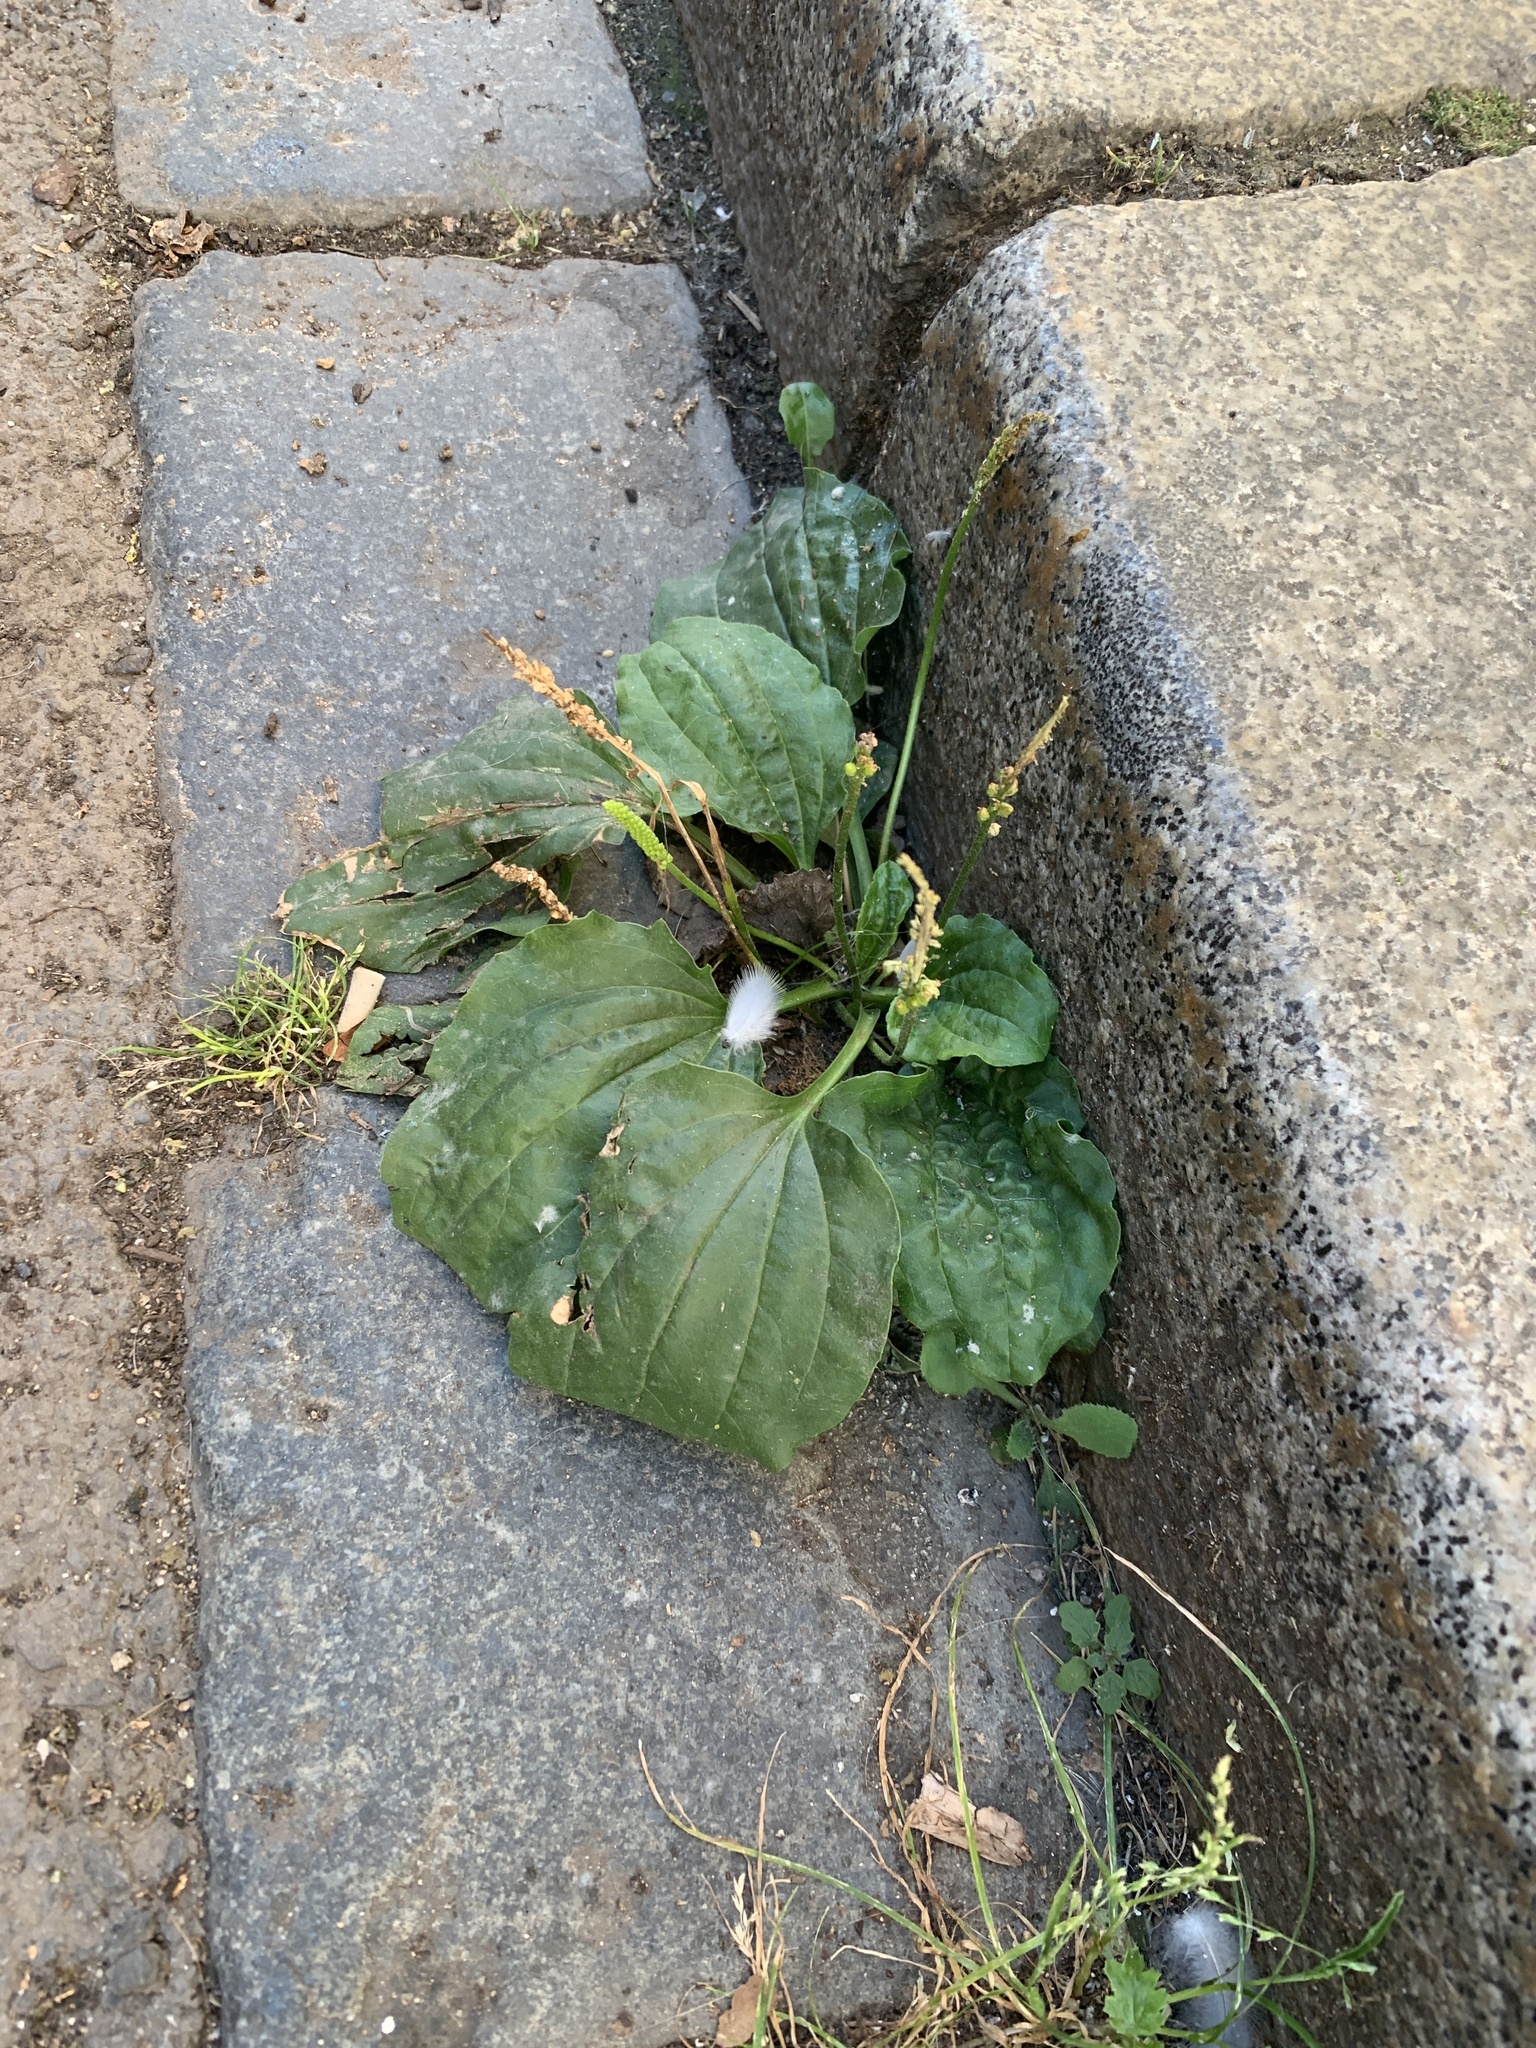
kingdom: Plantae
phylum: Tracheophyta
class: Magnoliopsida
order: Lamiales
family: Plantaginaceae
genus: Plantago
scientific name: Plantago major
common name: Common plantain
